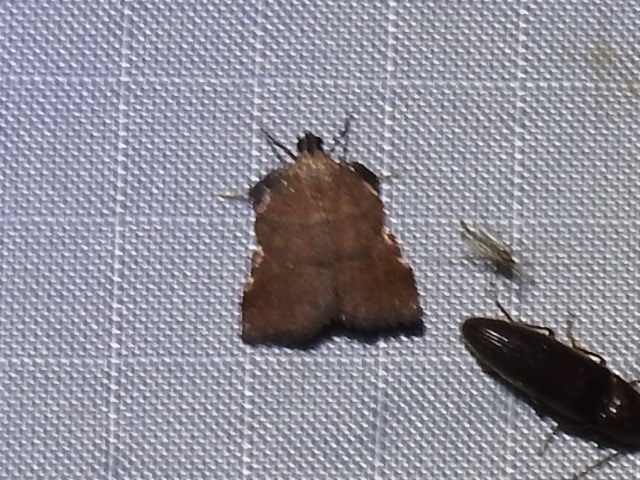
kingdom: Animalia
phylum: Arthropoda
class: Insecta
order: Lepidoptera
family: Pyralidae
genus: Salobrena
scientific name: Salobrena sincera
